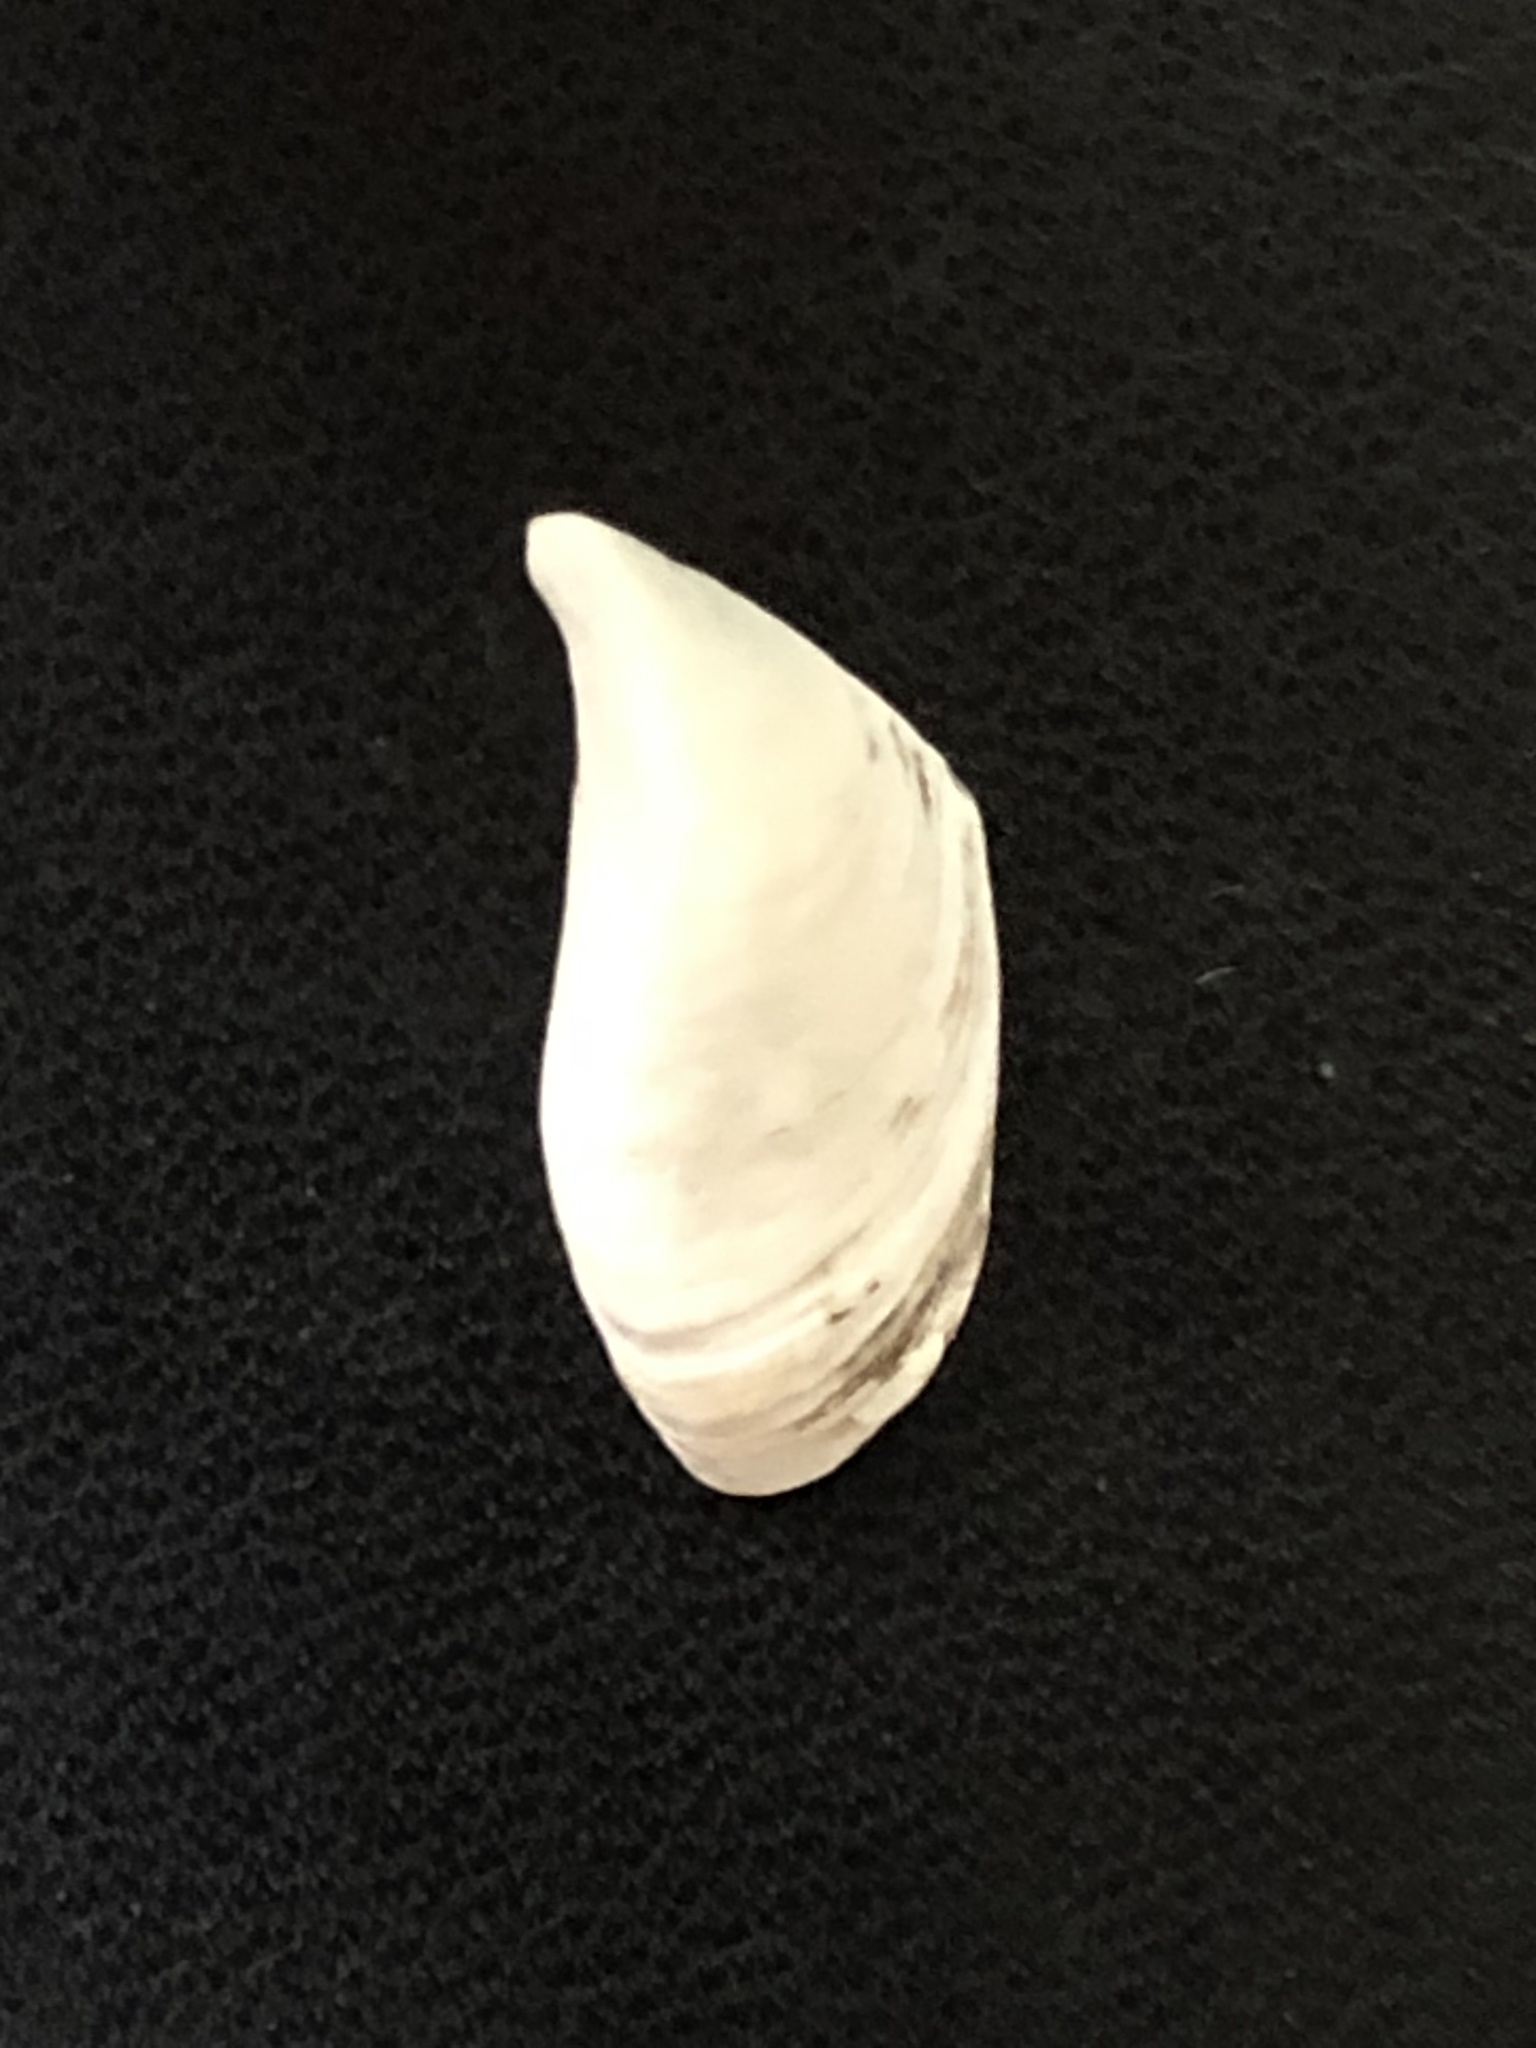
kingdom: Animalia
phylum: Mollusca
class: Bivalvia
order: Myida
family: Dreissenidae
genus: Dreissena
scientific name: Dreissena bugensis
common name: Quagga mussel
